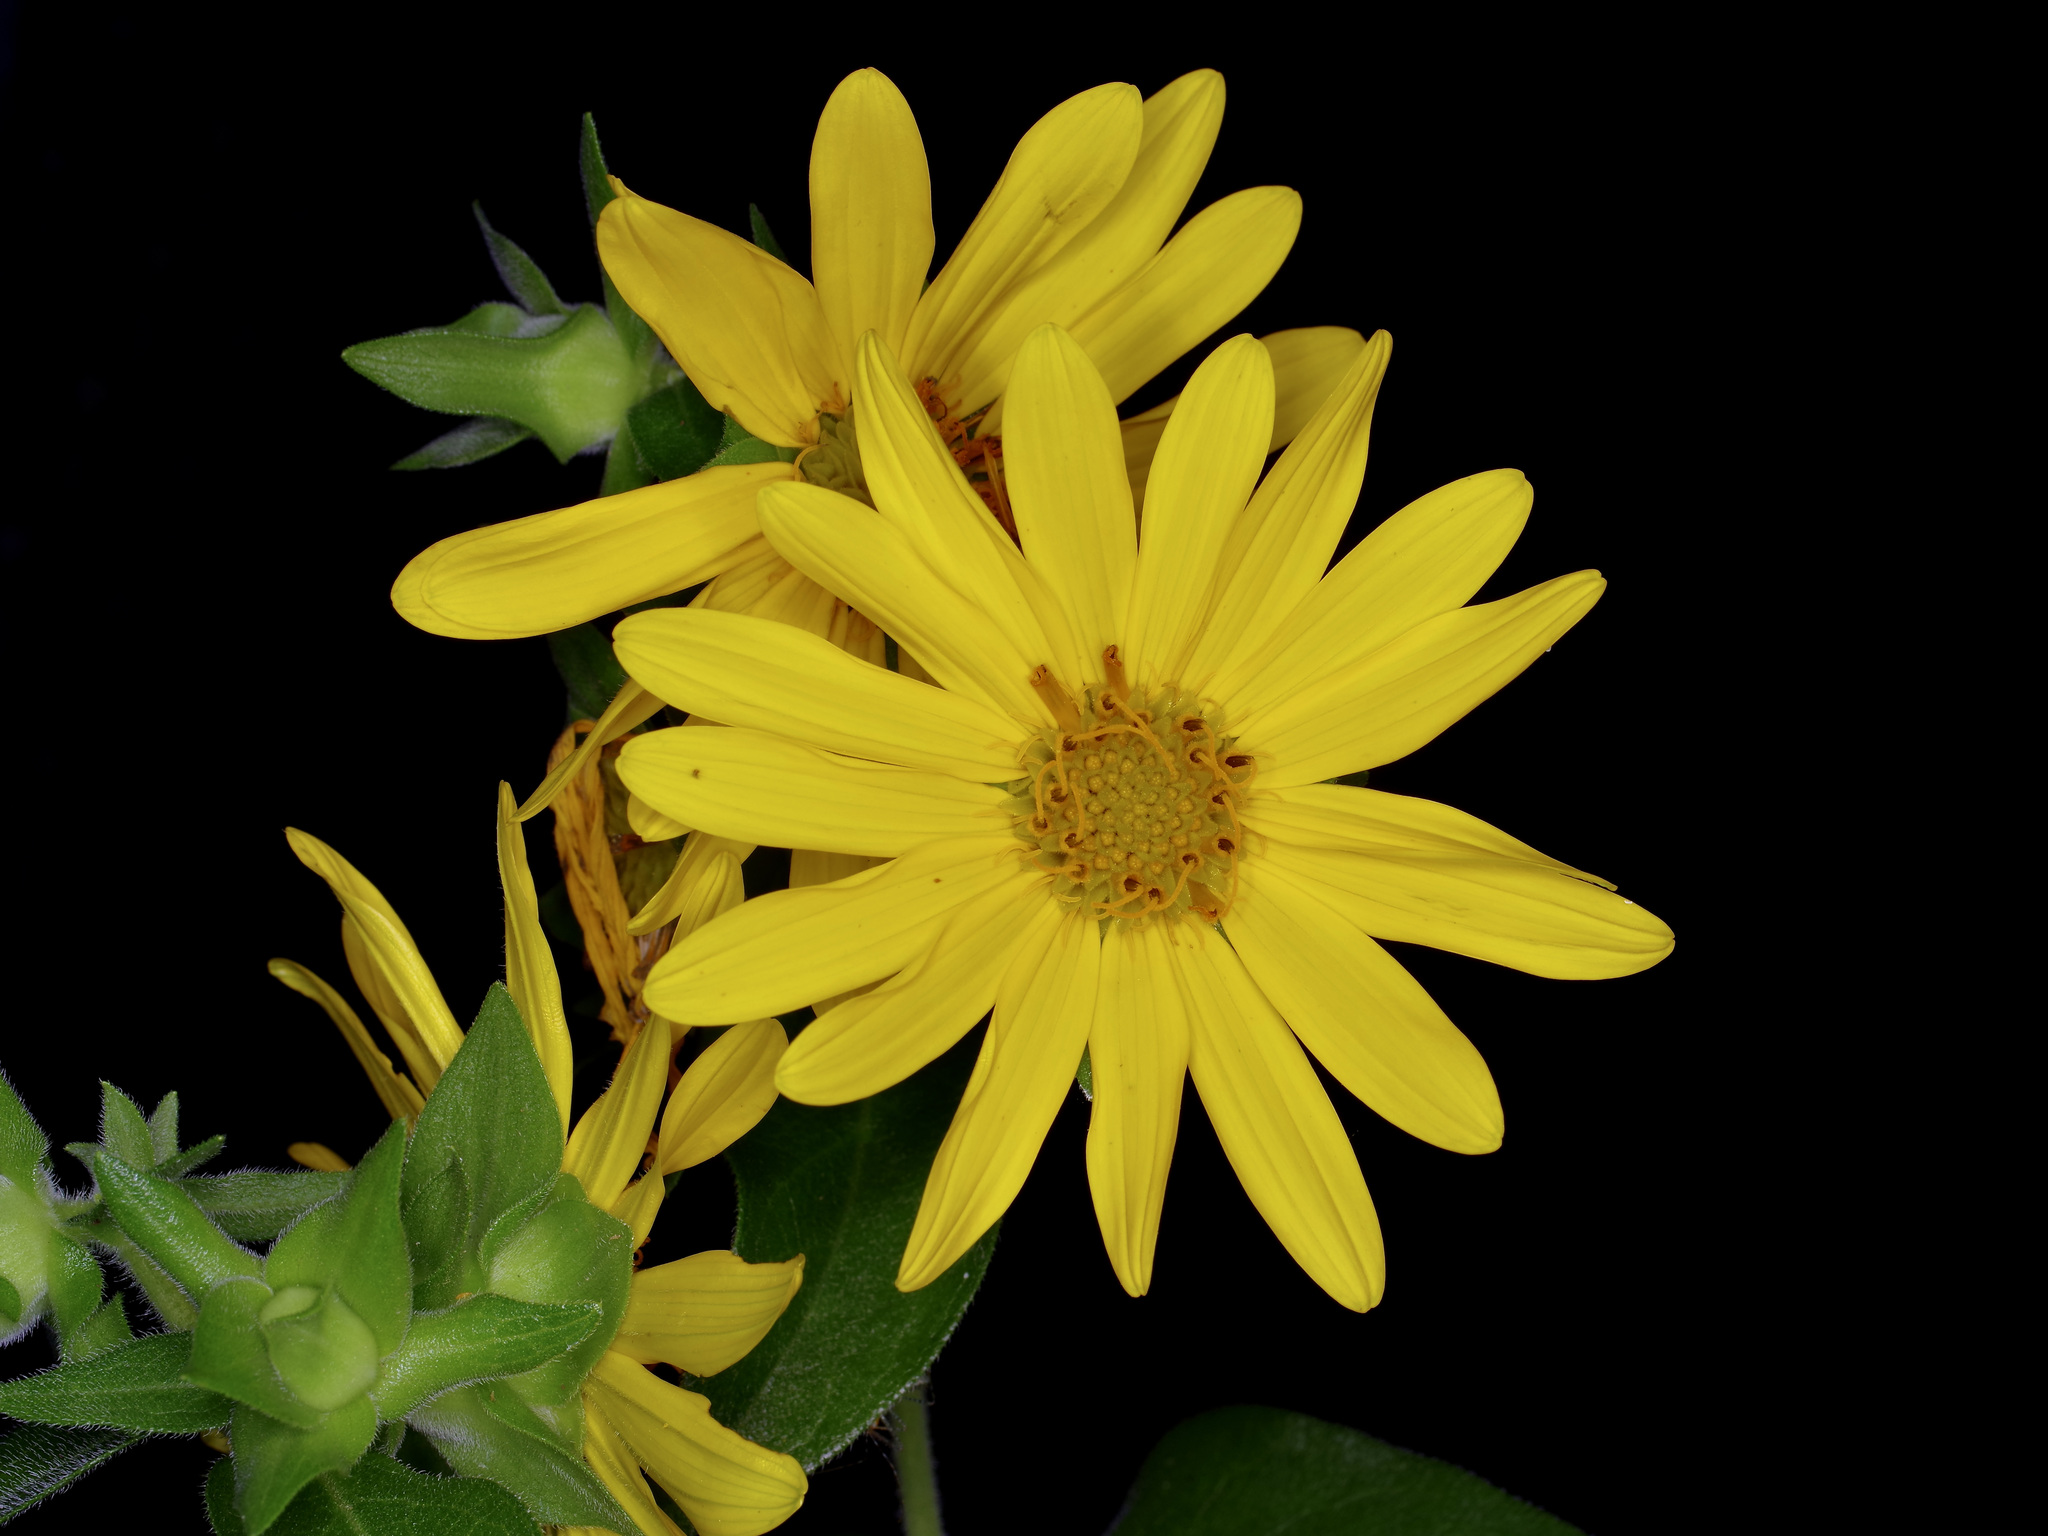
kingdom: Plantae
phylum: Tracheophyta
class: Magnoliopsida
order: Asterales
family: Asteraceae
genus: Silphium
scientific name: Silphium radula
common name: Roughleaf rosinweed
